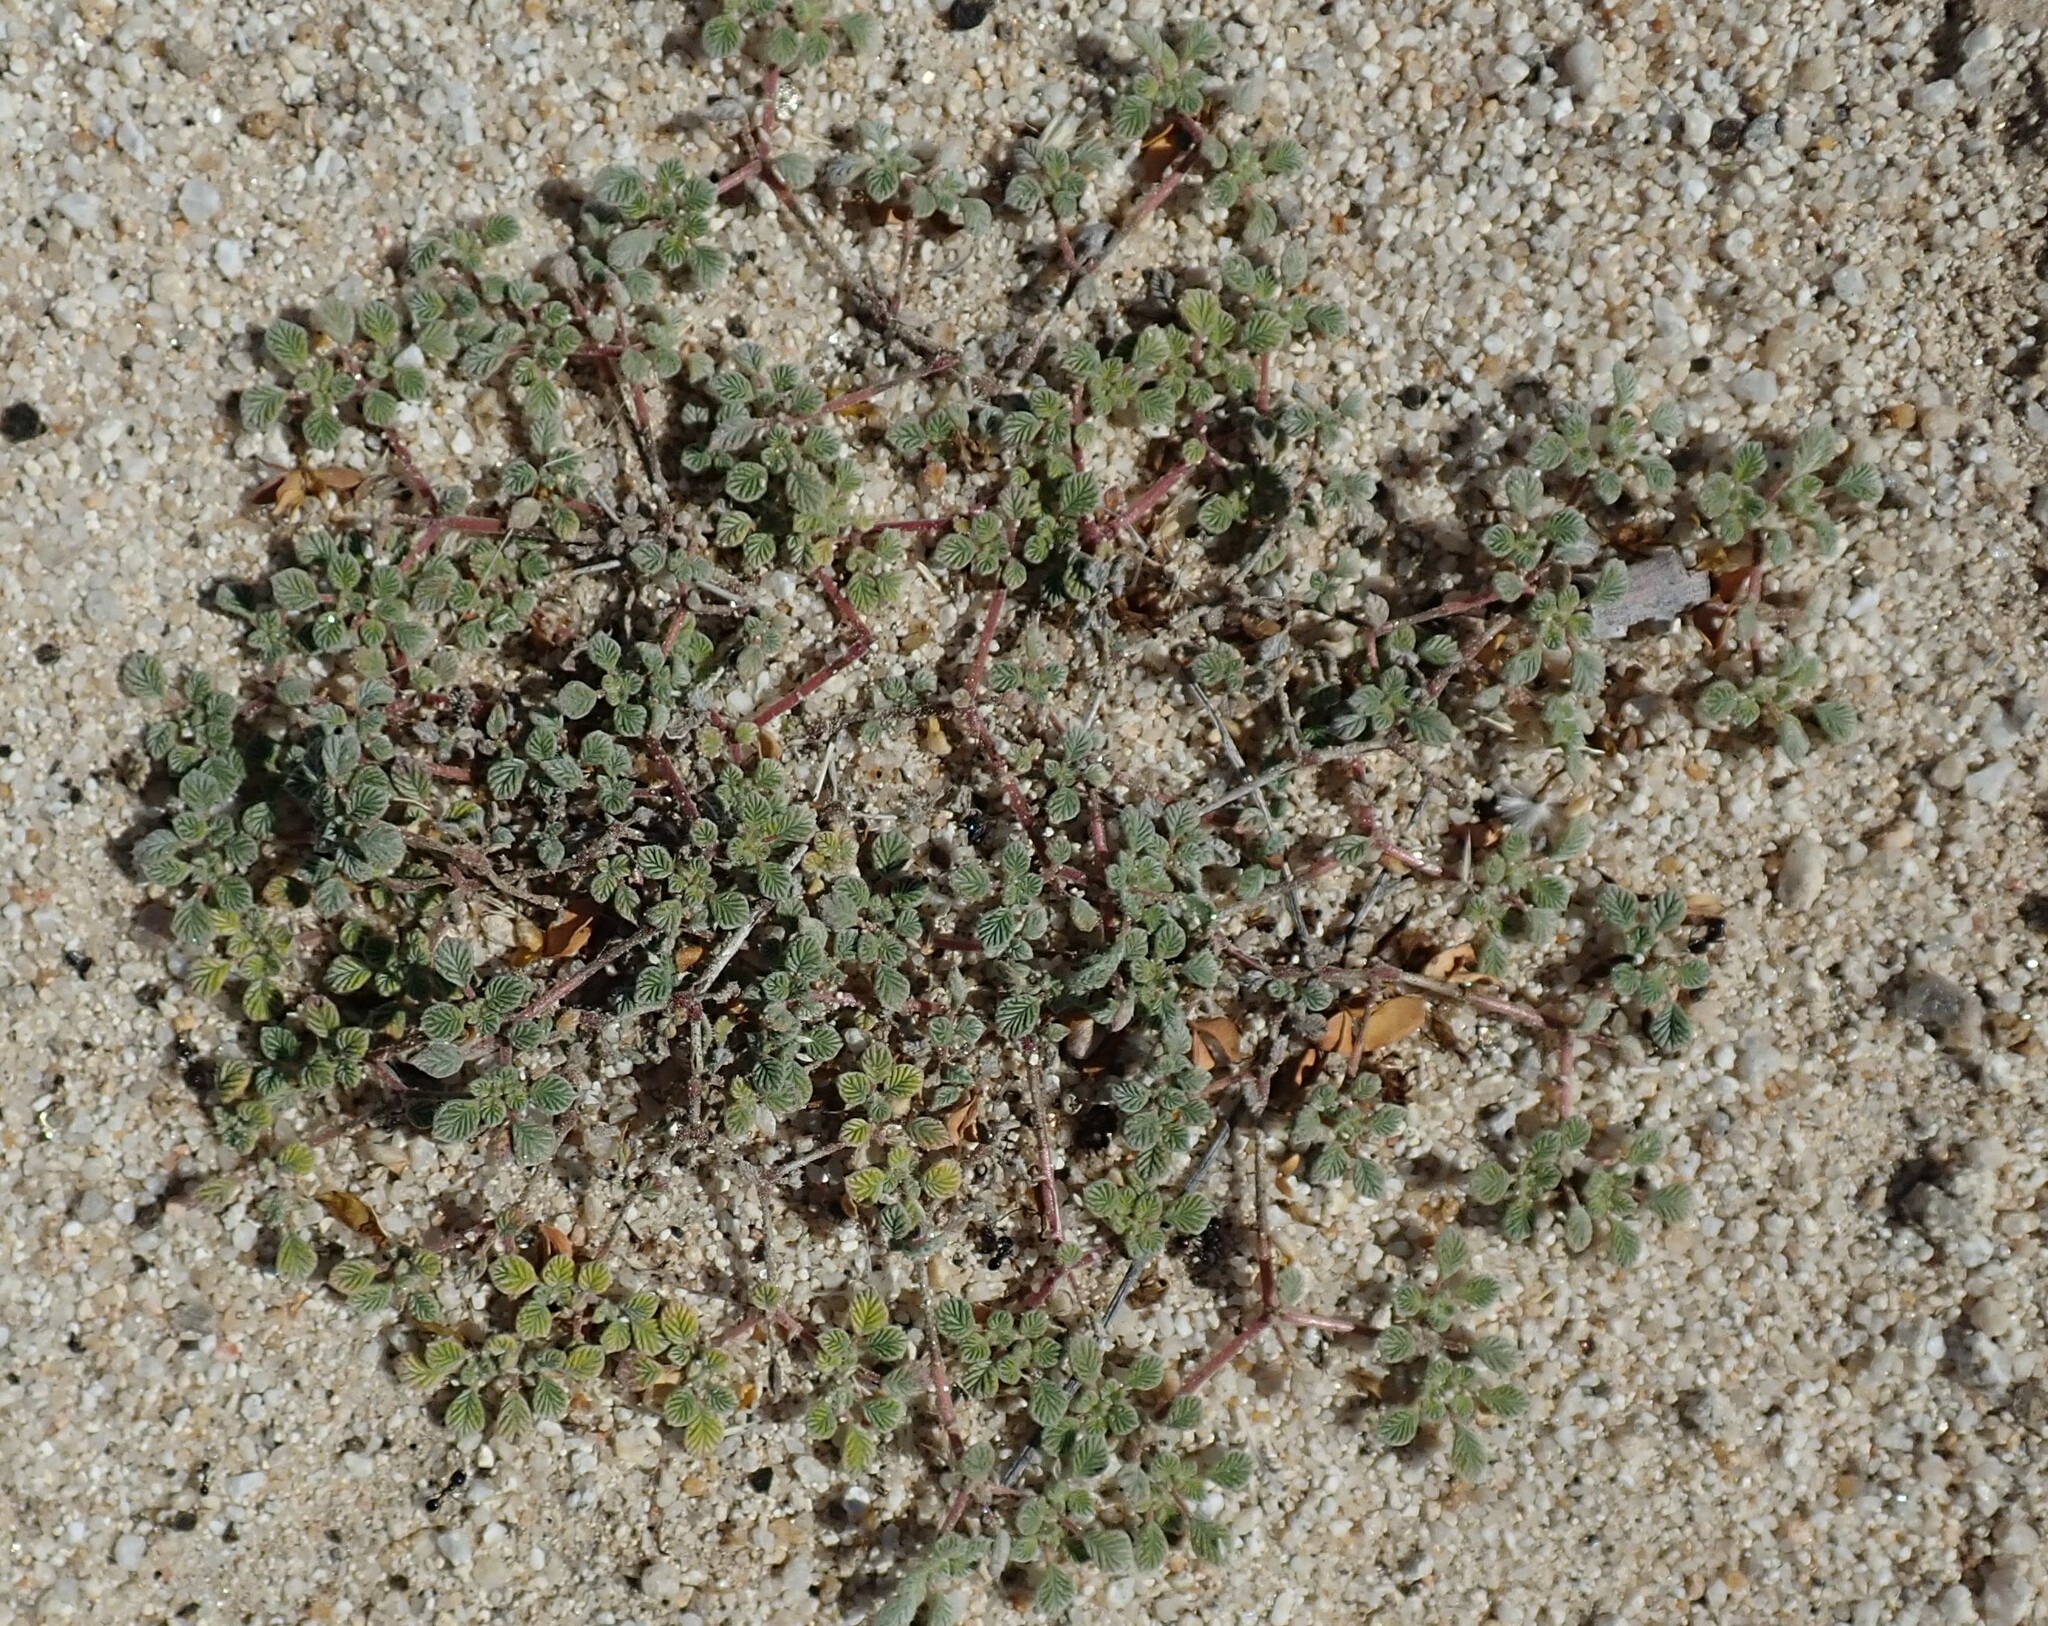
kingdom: Plantae
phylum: Tracheophyta
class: Magnoliopsida
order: Boraginales
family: Ehretiaceae
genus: Tiquilia
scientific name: Tiquilia plicata
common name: Fan-leaf tiquilia
